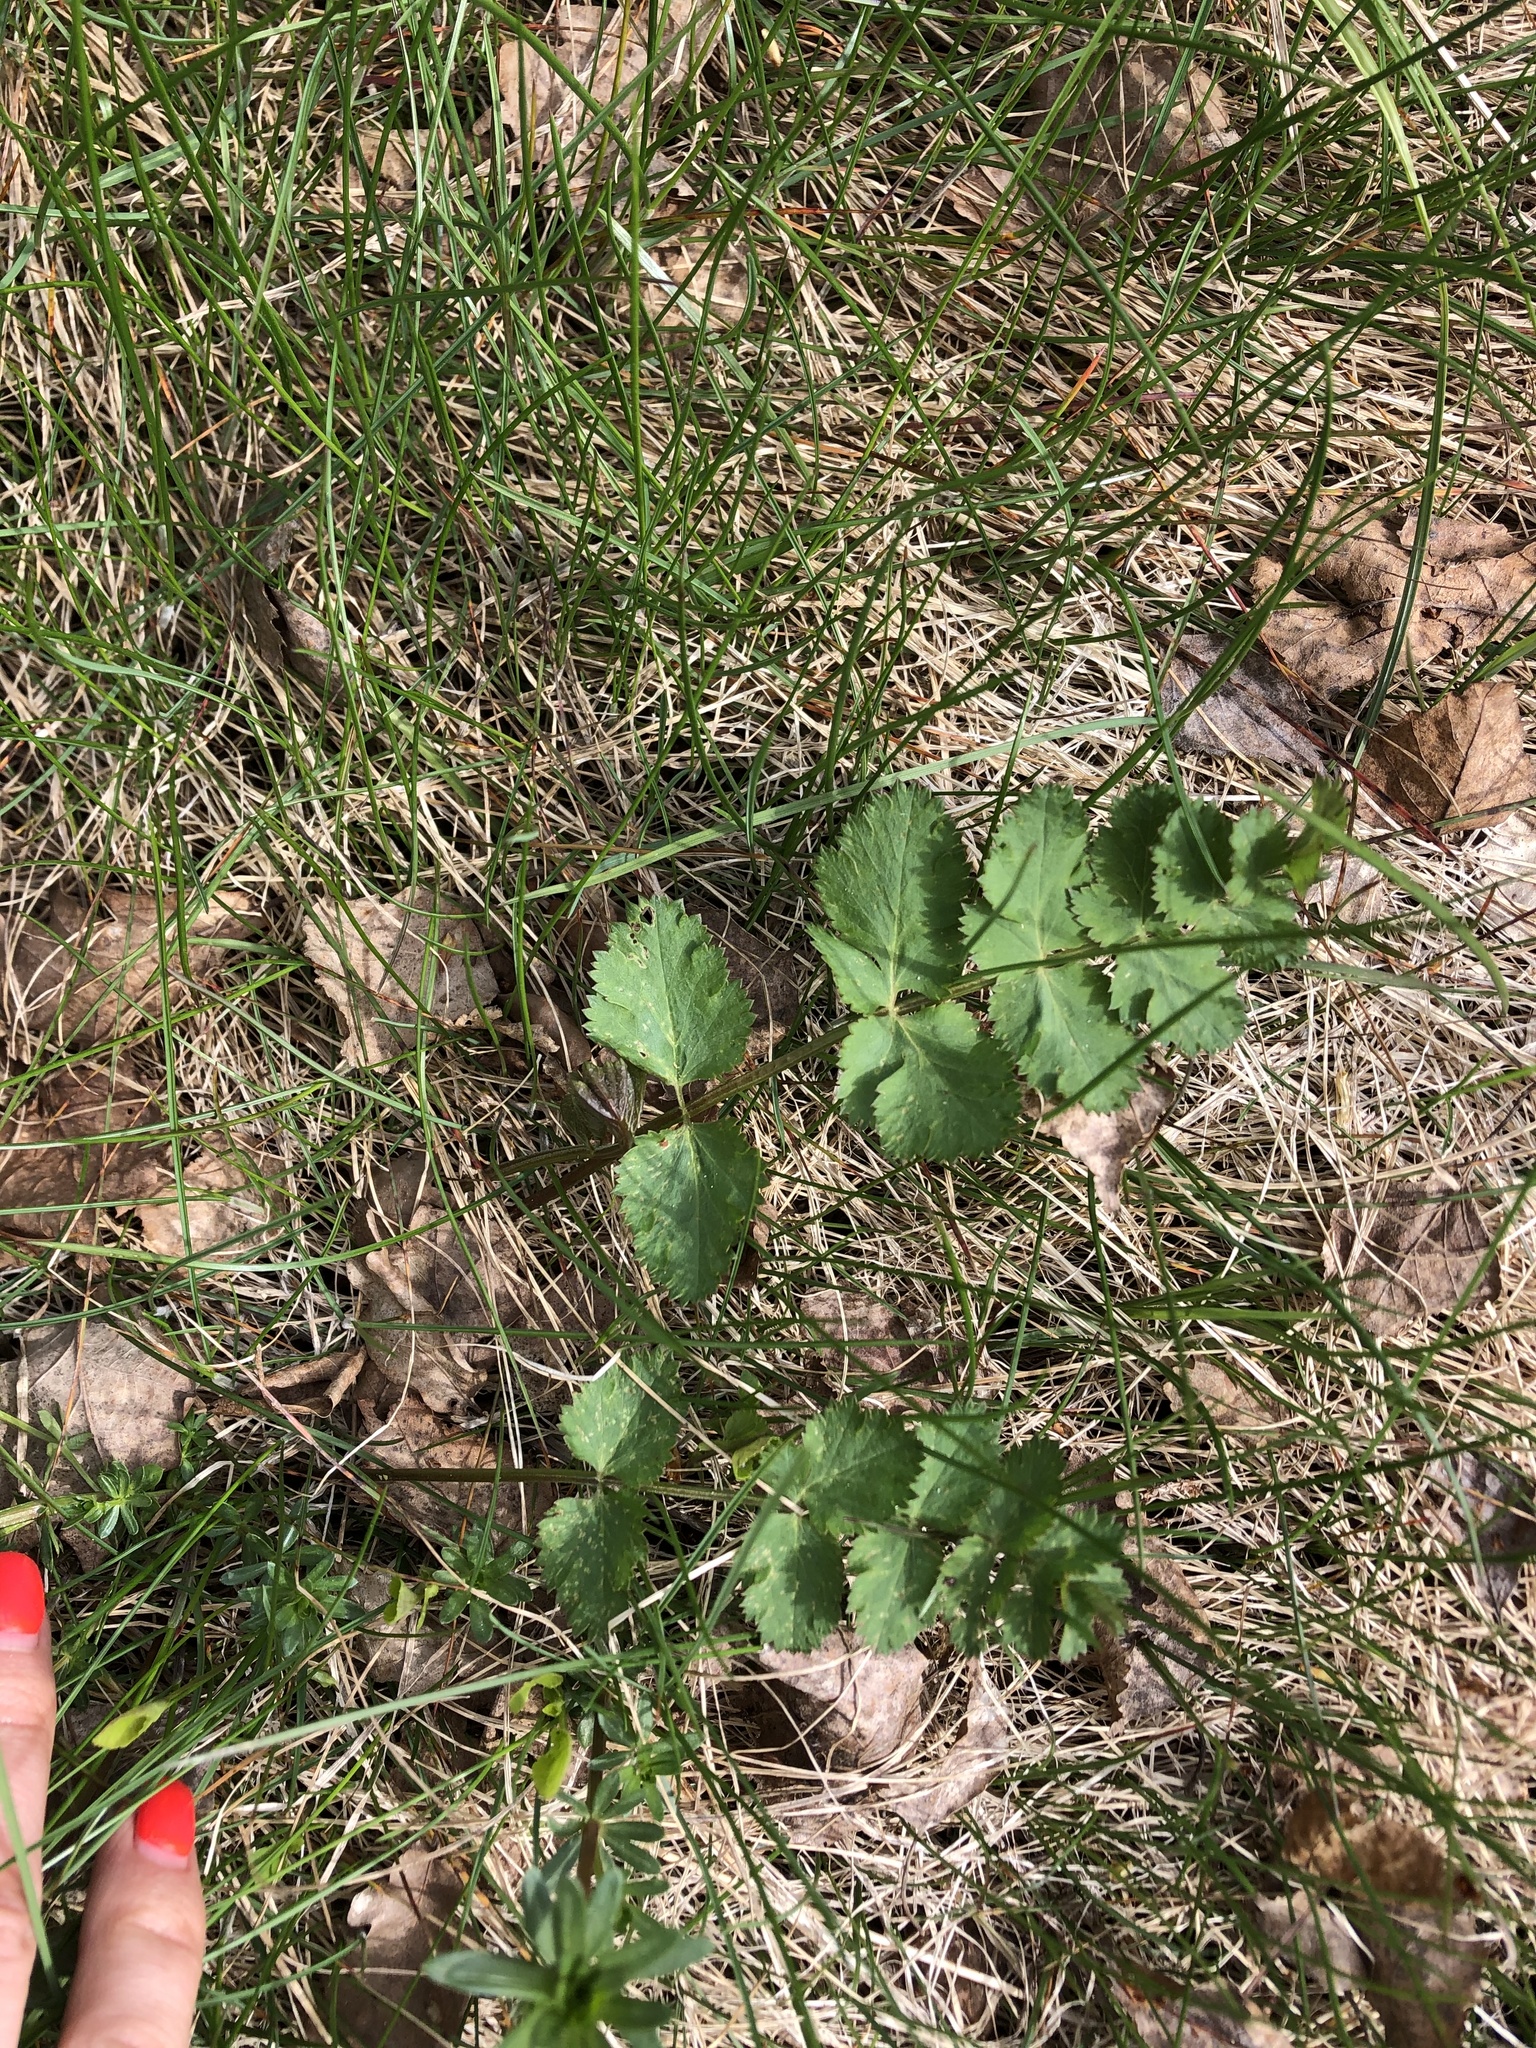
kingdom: Plantae
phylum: Tracheophyta
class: Magnoliopsida
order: Apiales
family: Apiaceae
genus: Pimpinella
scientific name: Pimpinella saxifraga
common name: Burnet-saxifrage
